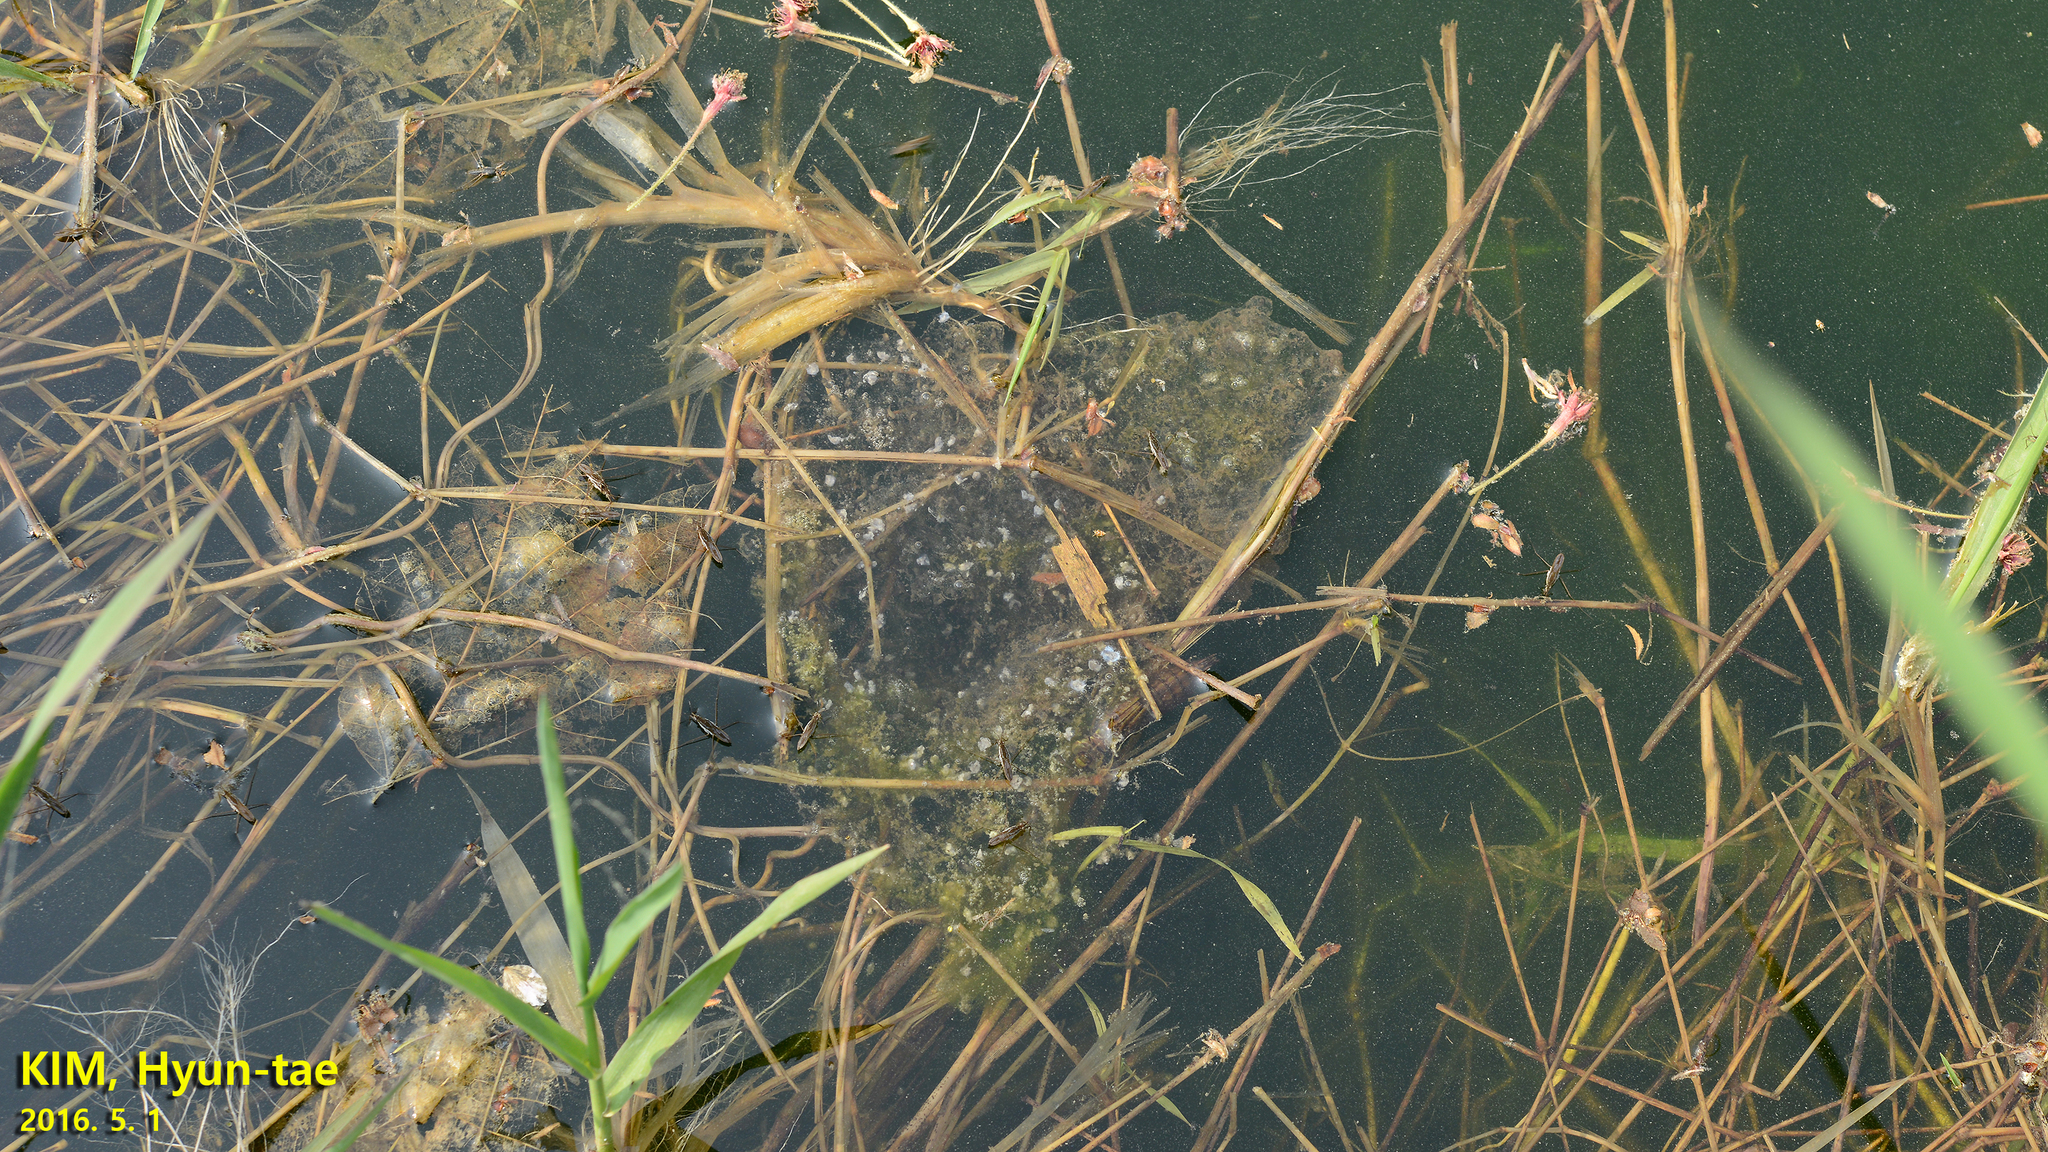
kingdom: Animalia
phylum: Chordata
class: Amphibia
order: Anura
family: Ranidae
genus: Pelophylax
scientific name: Pelophylax nigromaculatus
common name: Black-spotted pond frog
